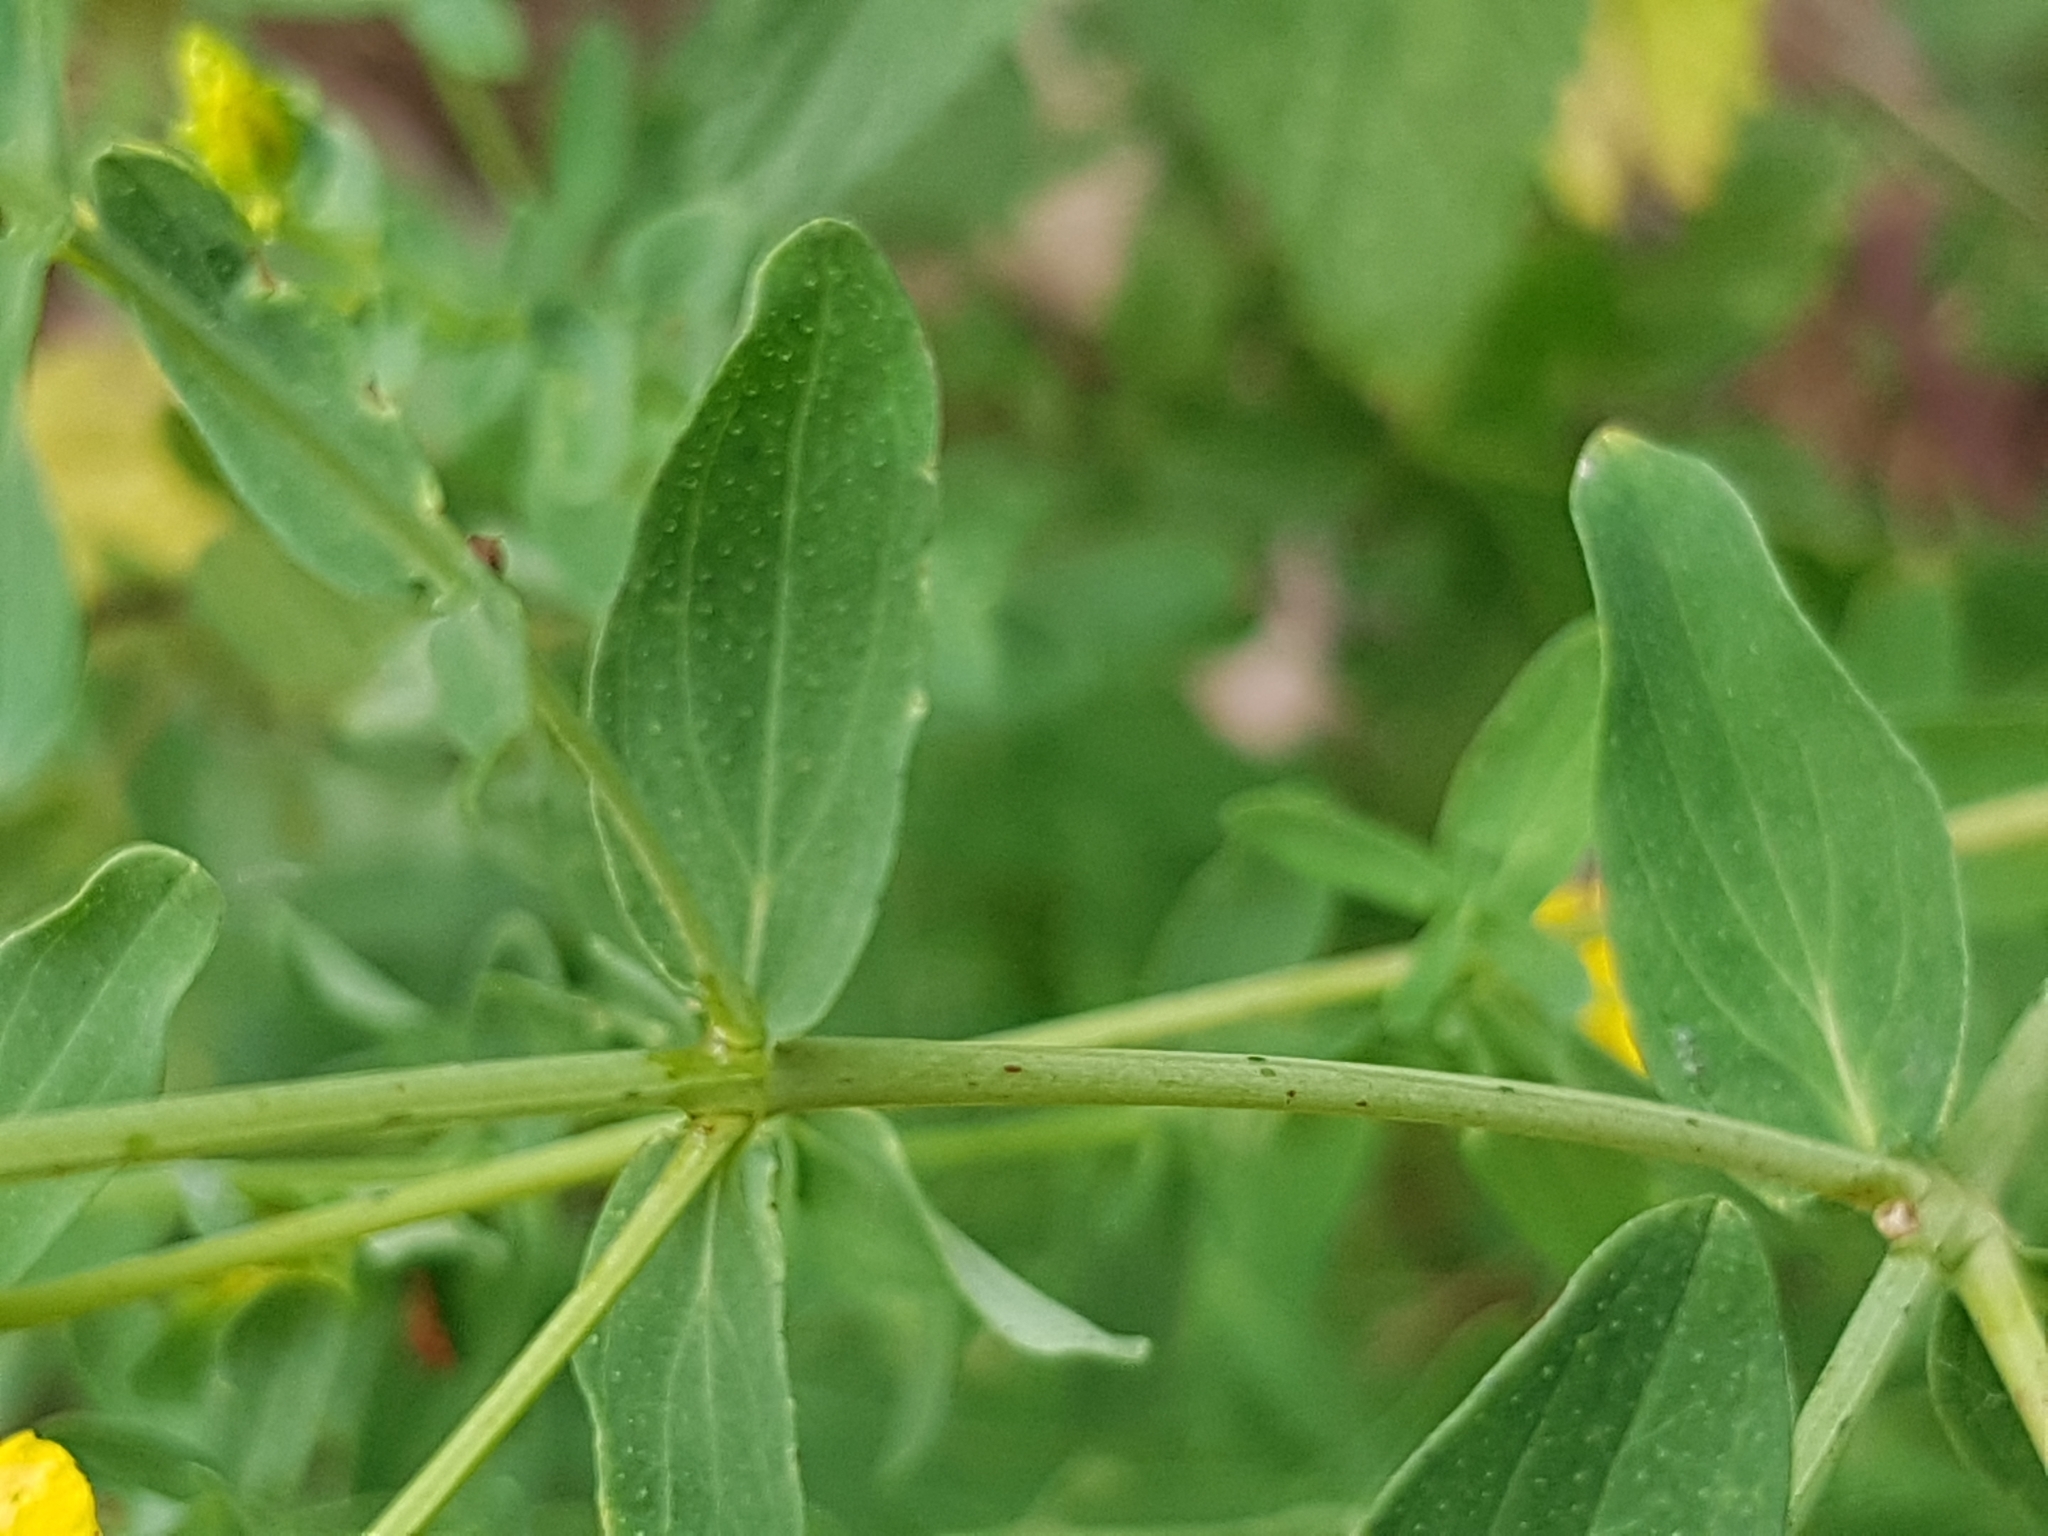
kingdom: Plantae
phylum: Tracheophyta
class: Magnoliopsida
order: Malpighiales
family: Hypericaceae
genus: Hypericum
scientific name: Hypericum perforatum
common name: Common st. johnswort
